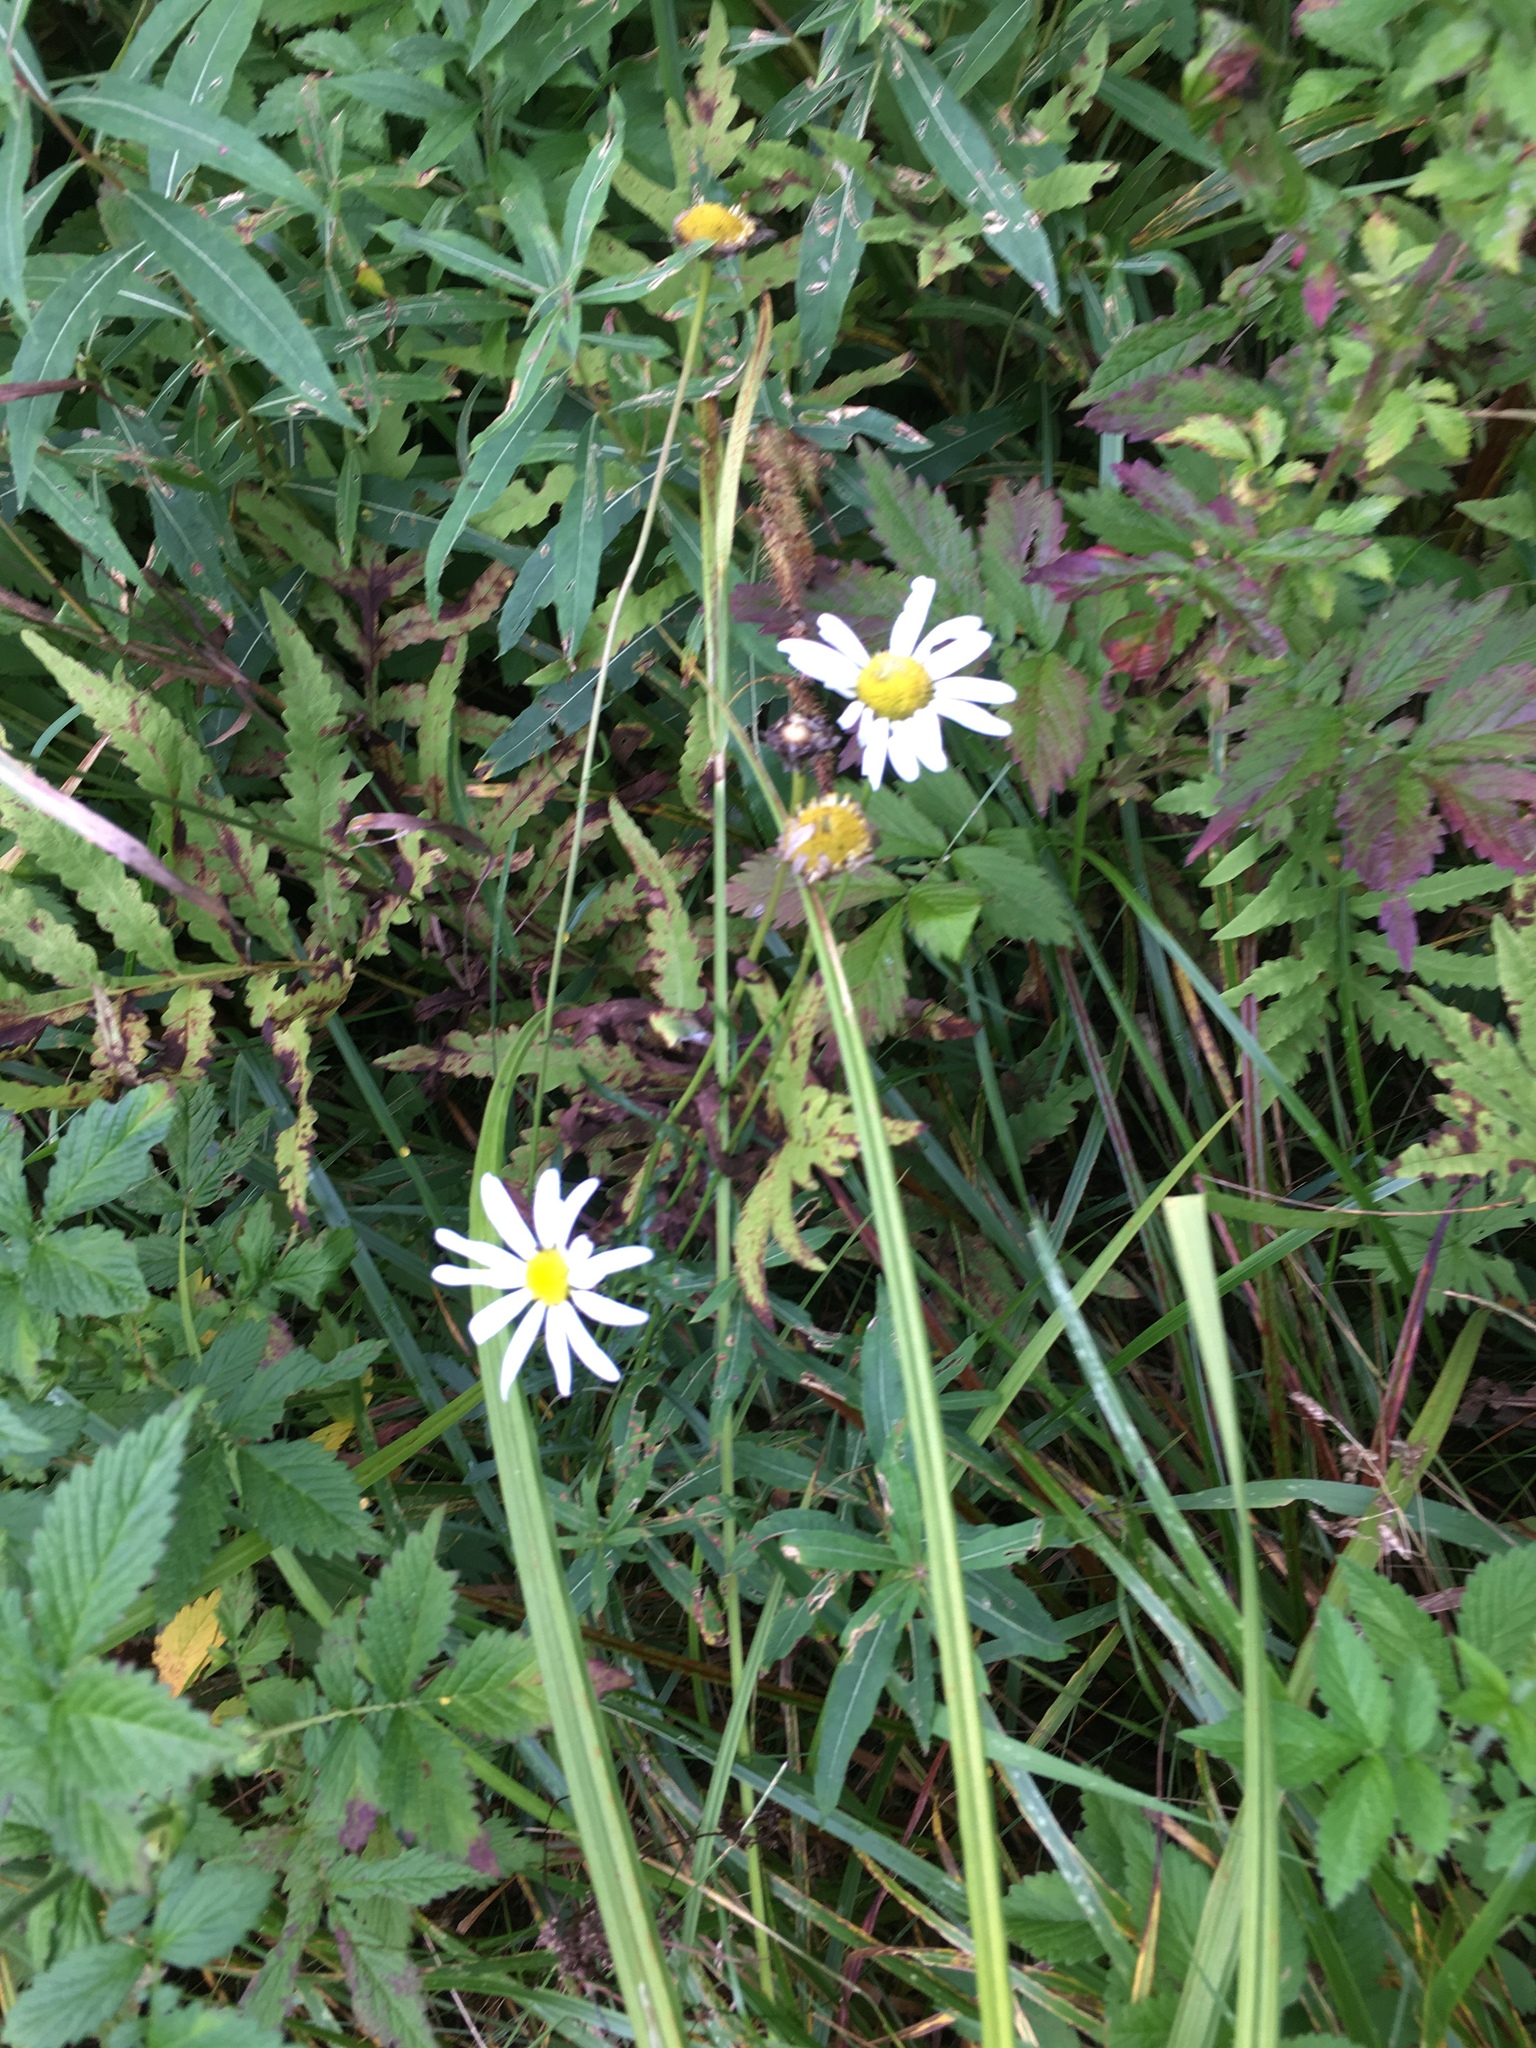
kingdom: Plantae
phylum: Tracheophyta
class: Magnoliopsida
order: Asterales
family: Asteraceae
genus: Leucanthemum
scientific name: Leucanthemum vulgare
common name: Oxeye daisy
